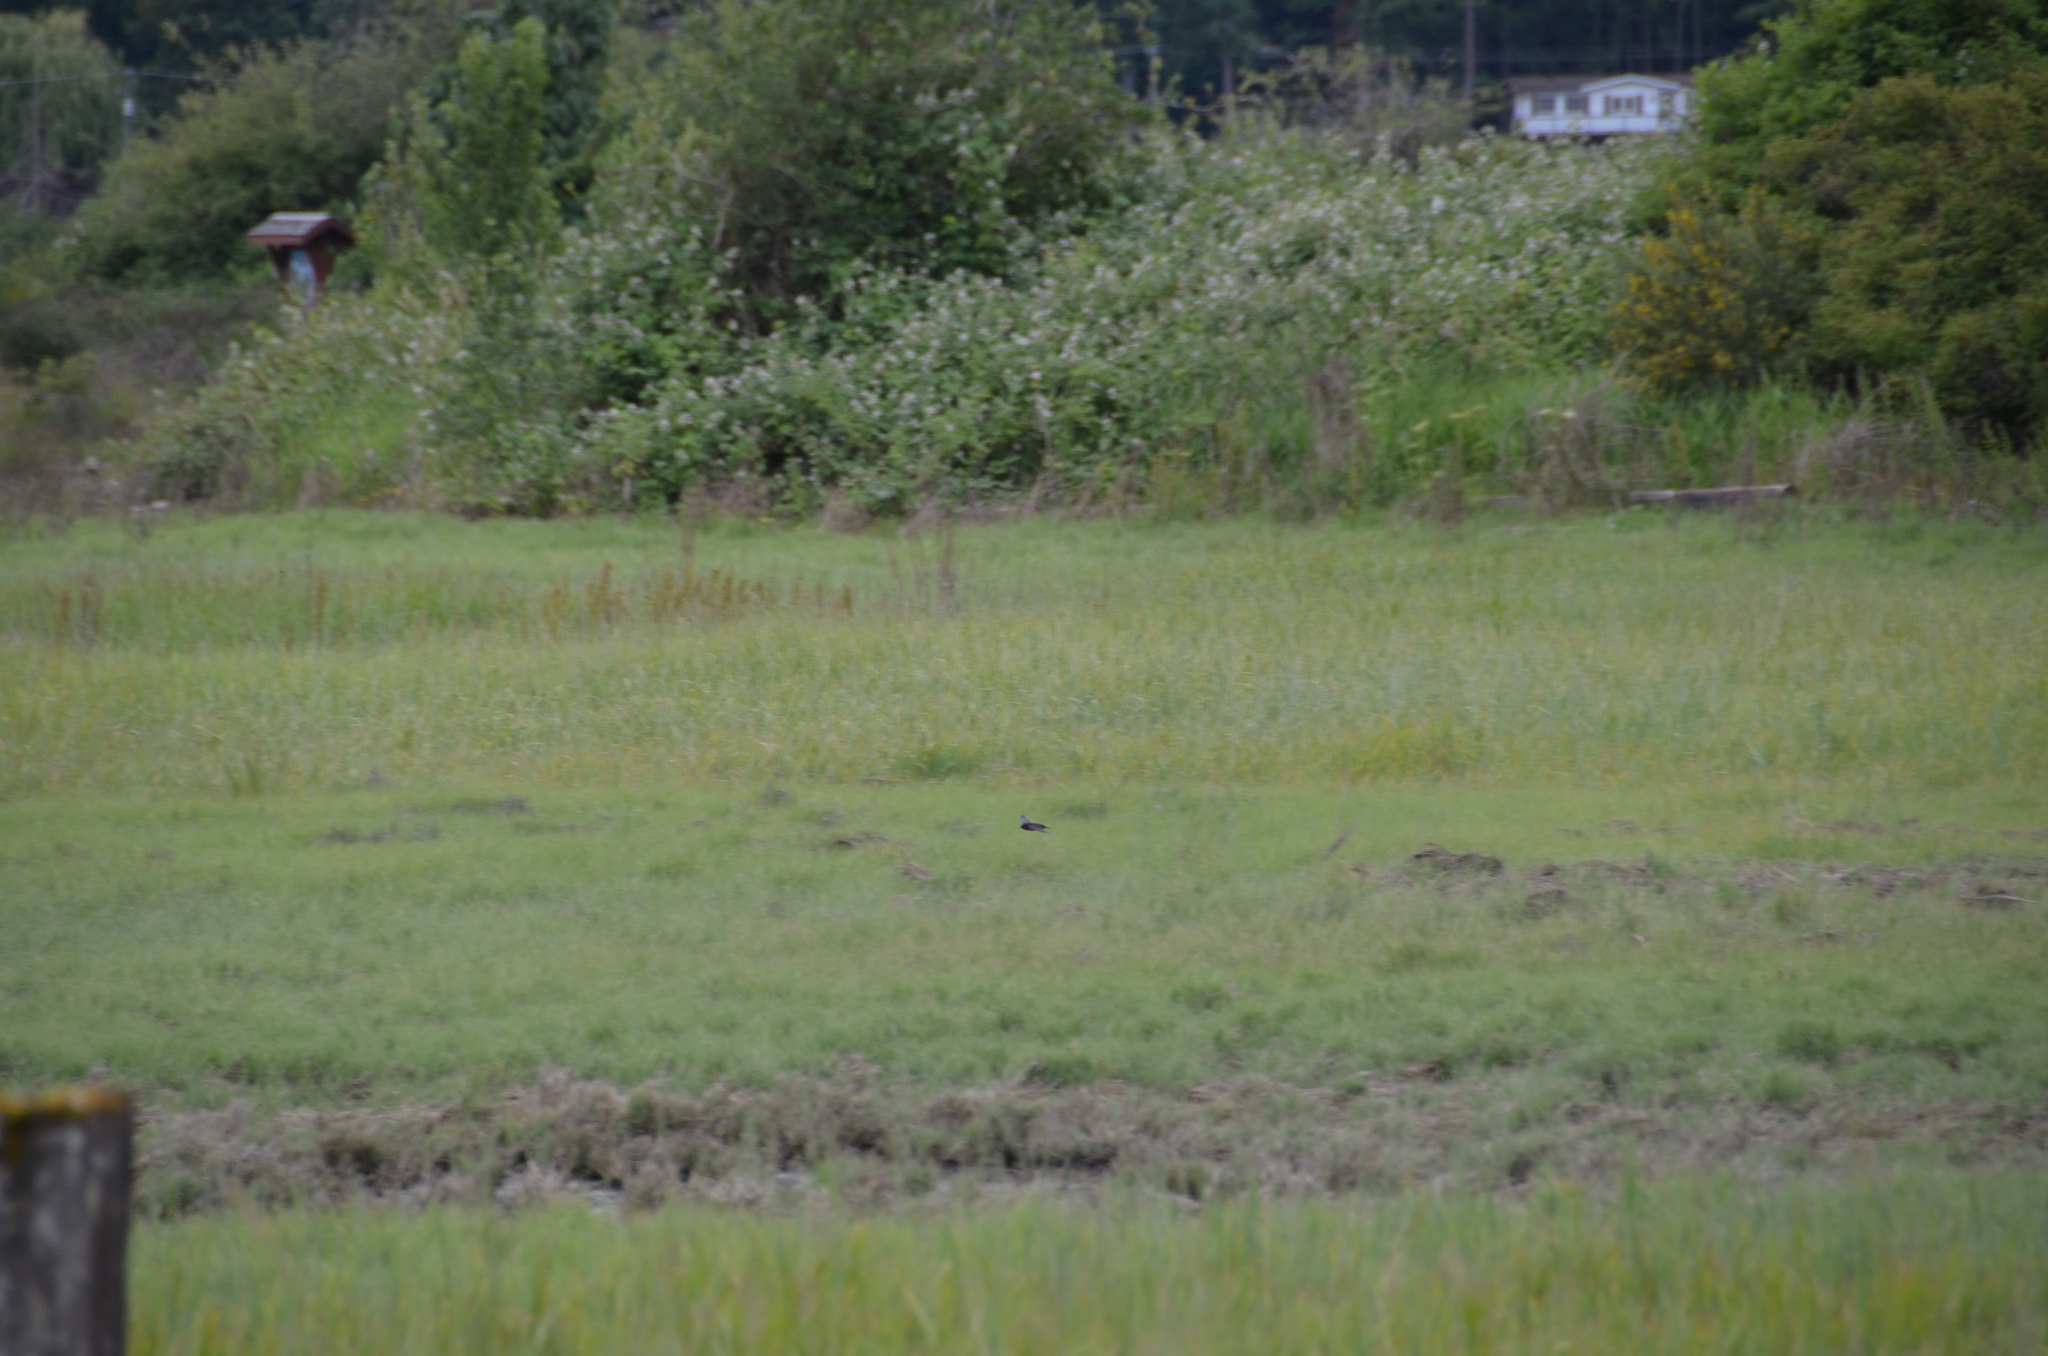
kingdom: Animalia
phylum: Chordata
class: Aves
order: Passeriformes
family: Hirundinidae
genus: Hirundo
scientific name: Hirundo rustica
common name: Barn swallow
